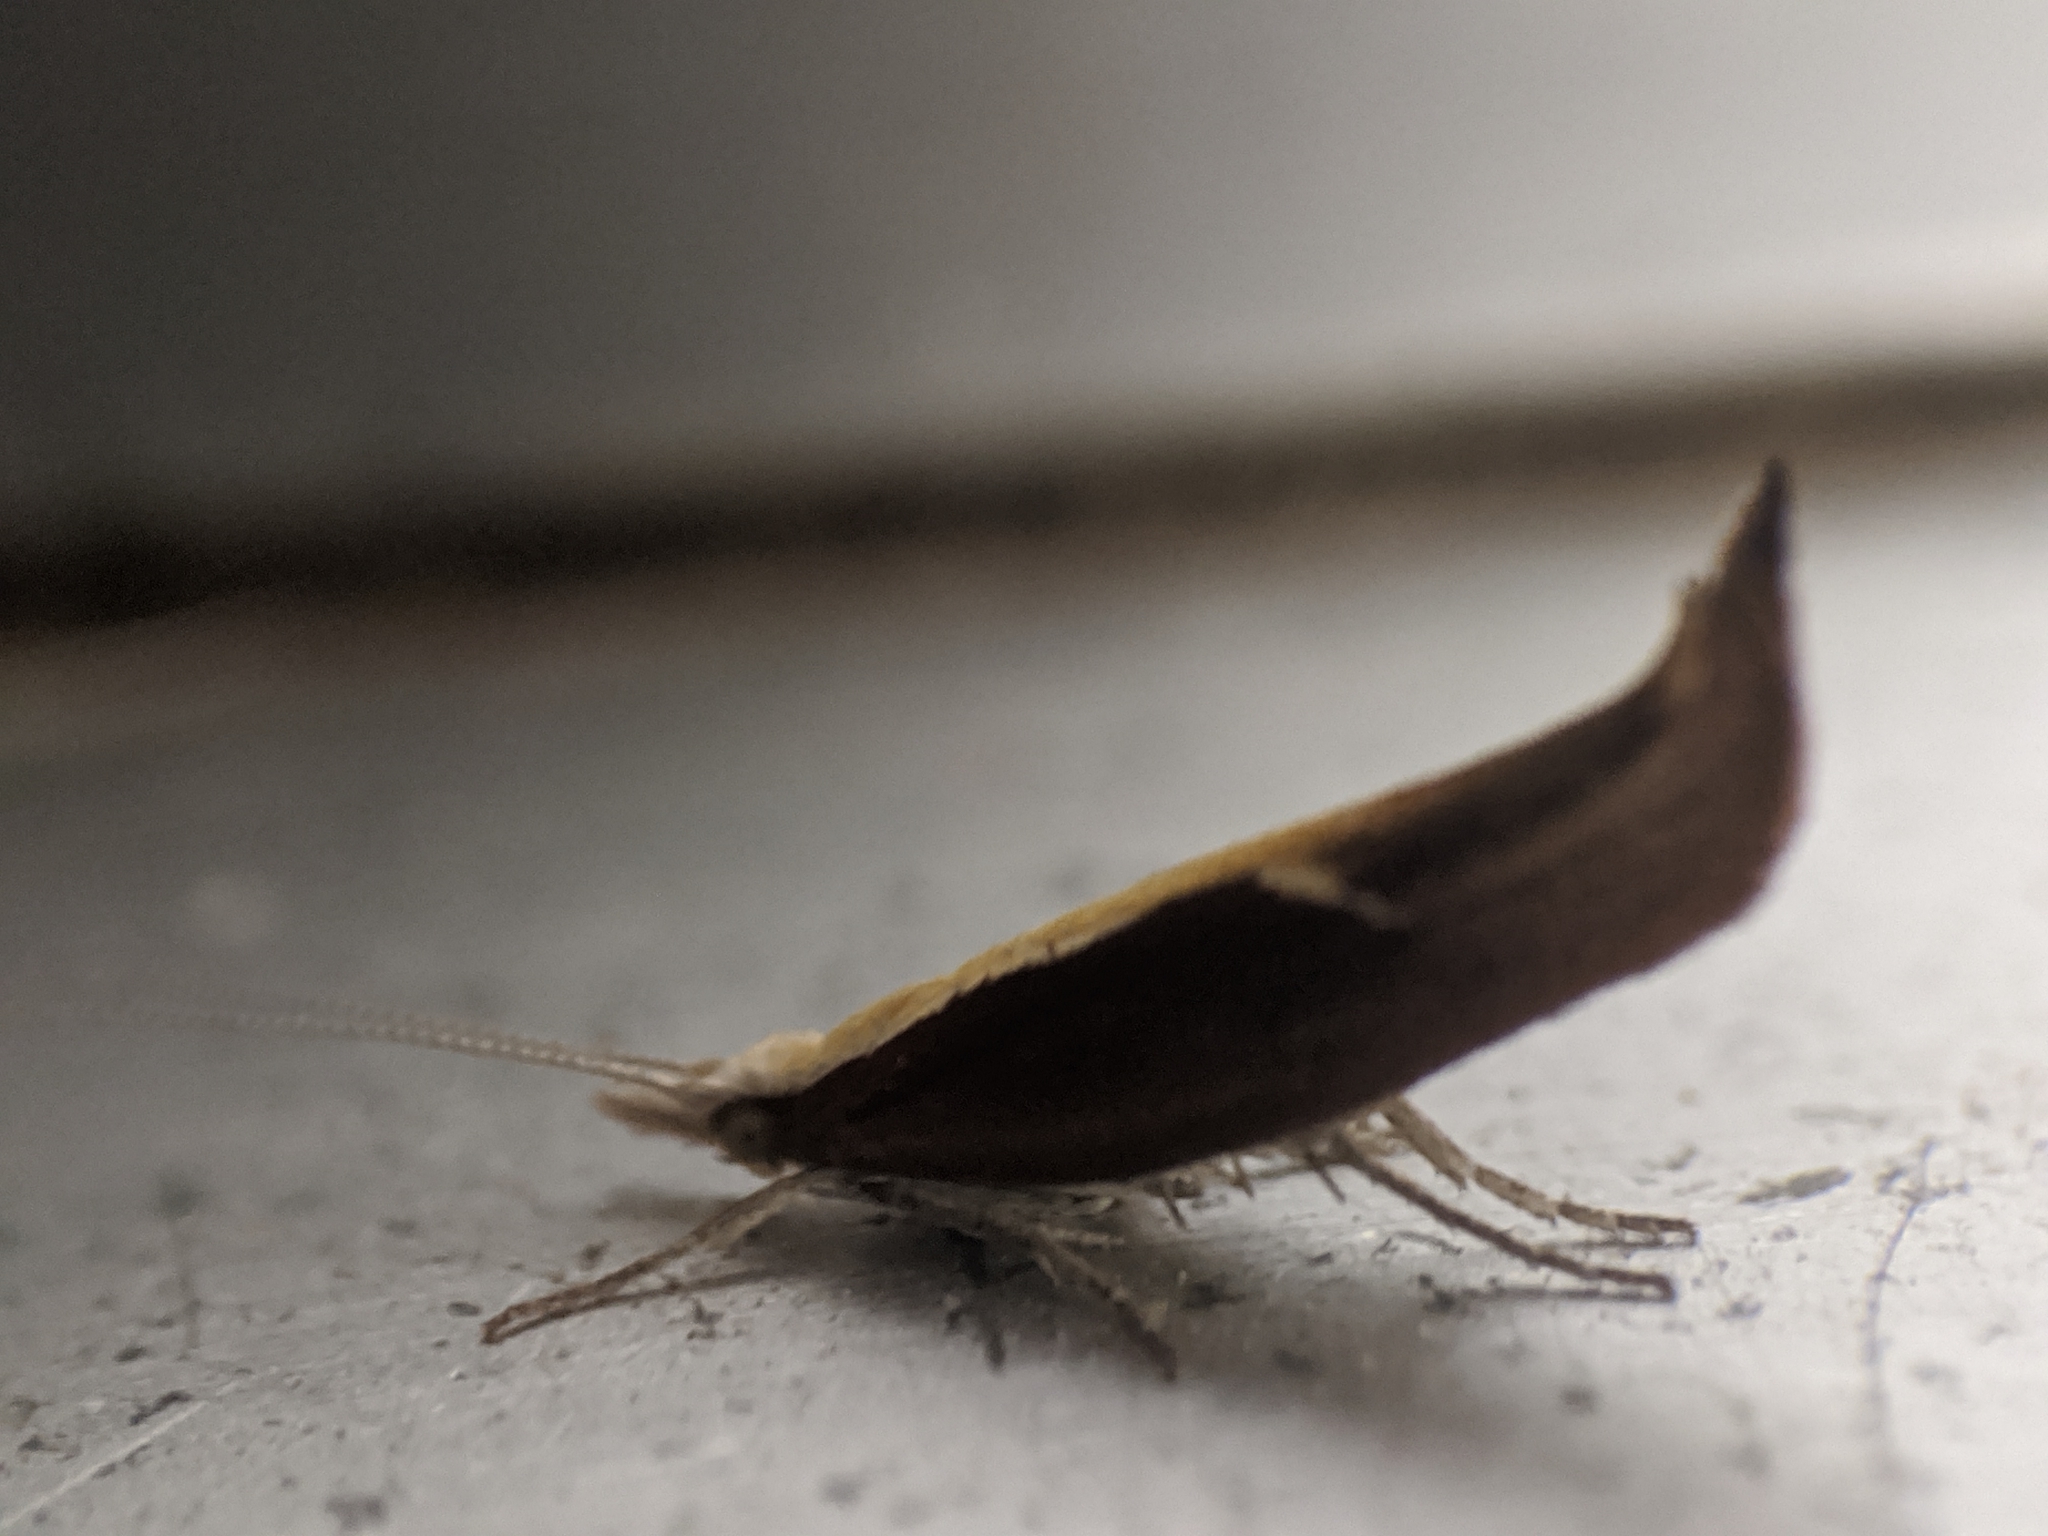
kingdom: Animalia
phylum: Arthropoda
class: Insecta
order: Lepidoptera
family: Ypsolophidae
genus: Ypsolopha
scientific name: Ypsolopha dentella
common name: Honeysuckle moth
